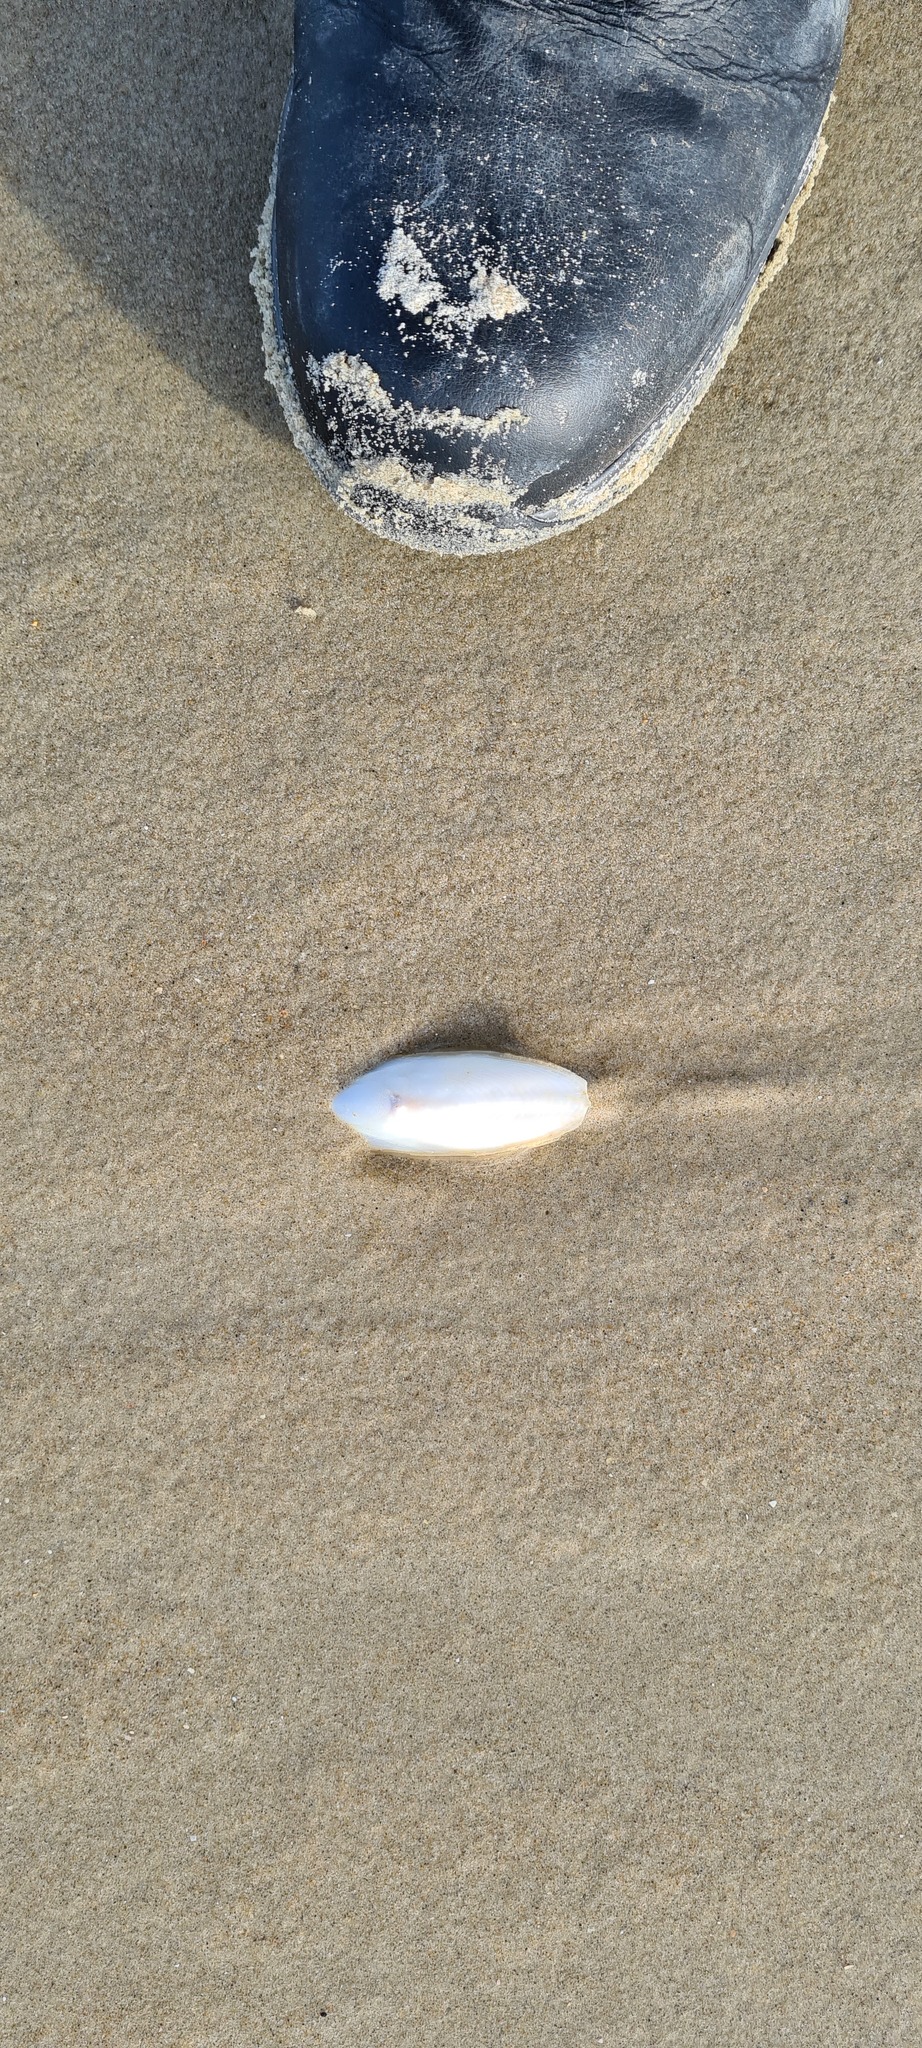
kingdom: Animalia
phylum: Mollusca
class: Cephalopoda
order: Sepiida
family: Sepiidae
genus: Sepia
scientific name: Sepia officinalis
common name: Common cuttlefish
